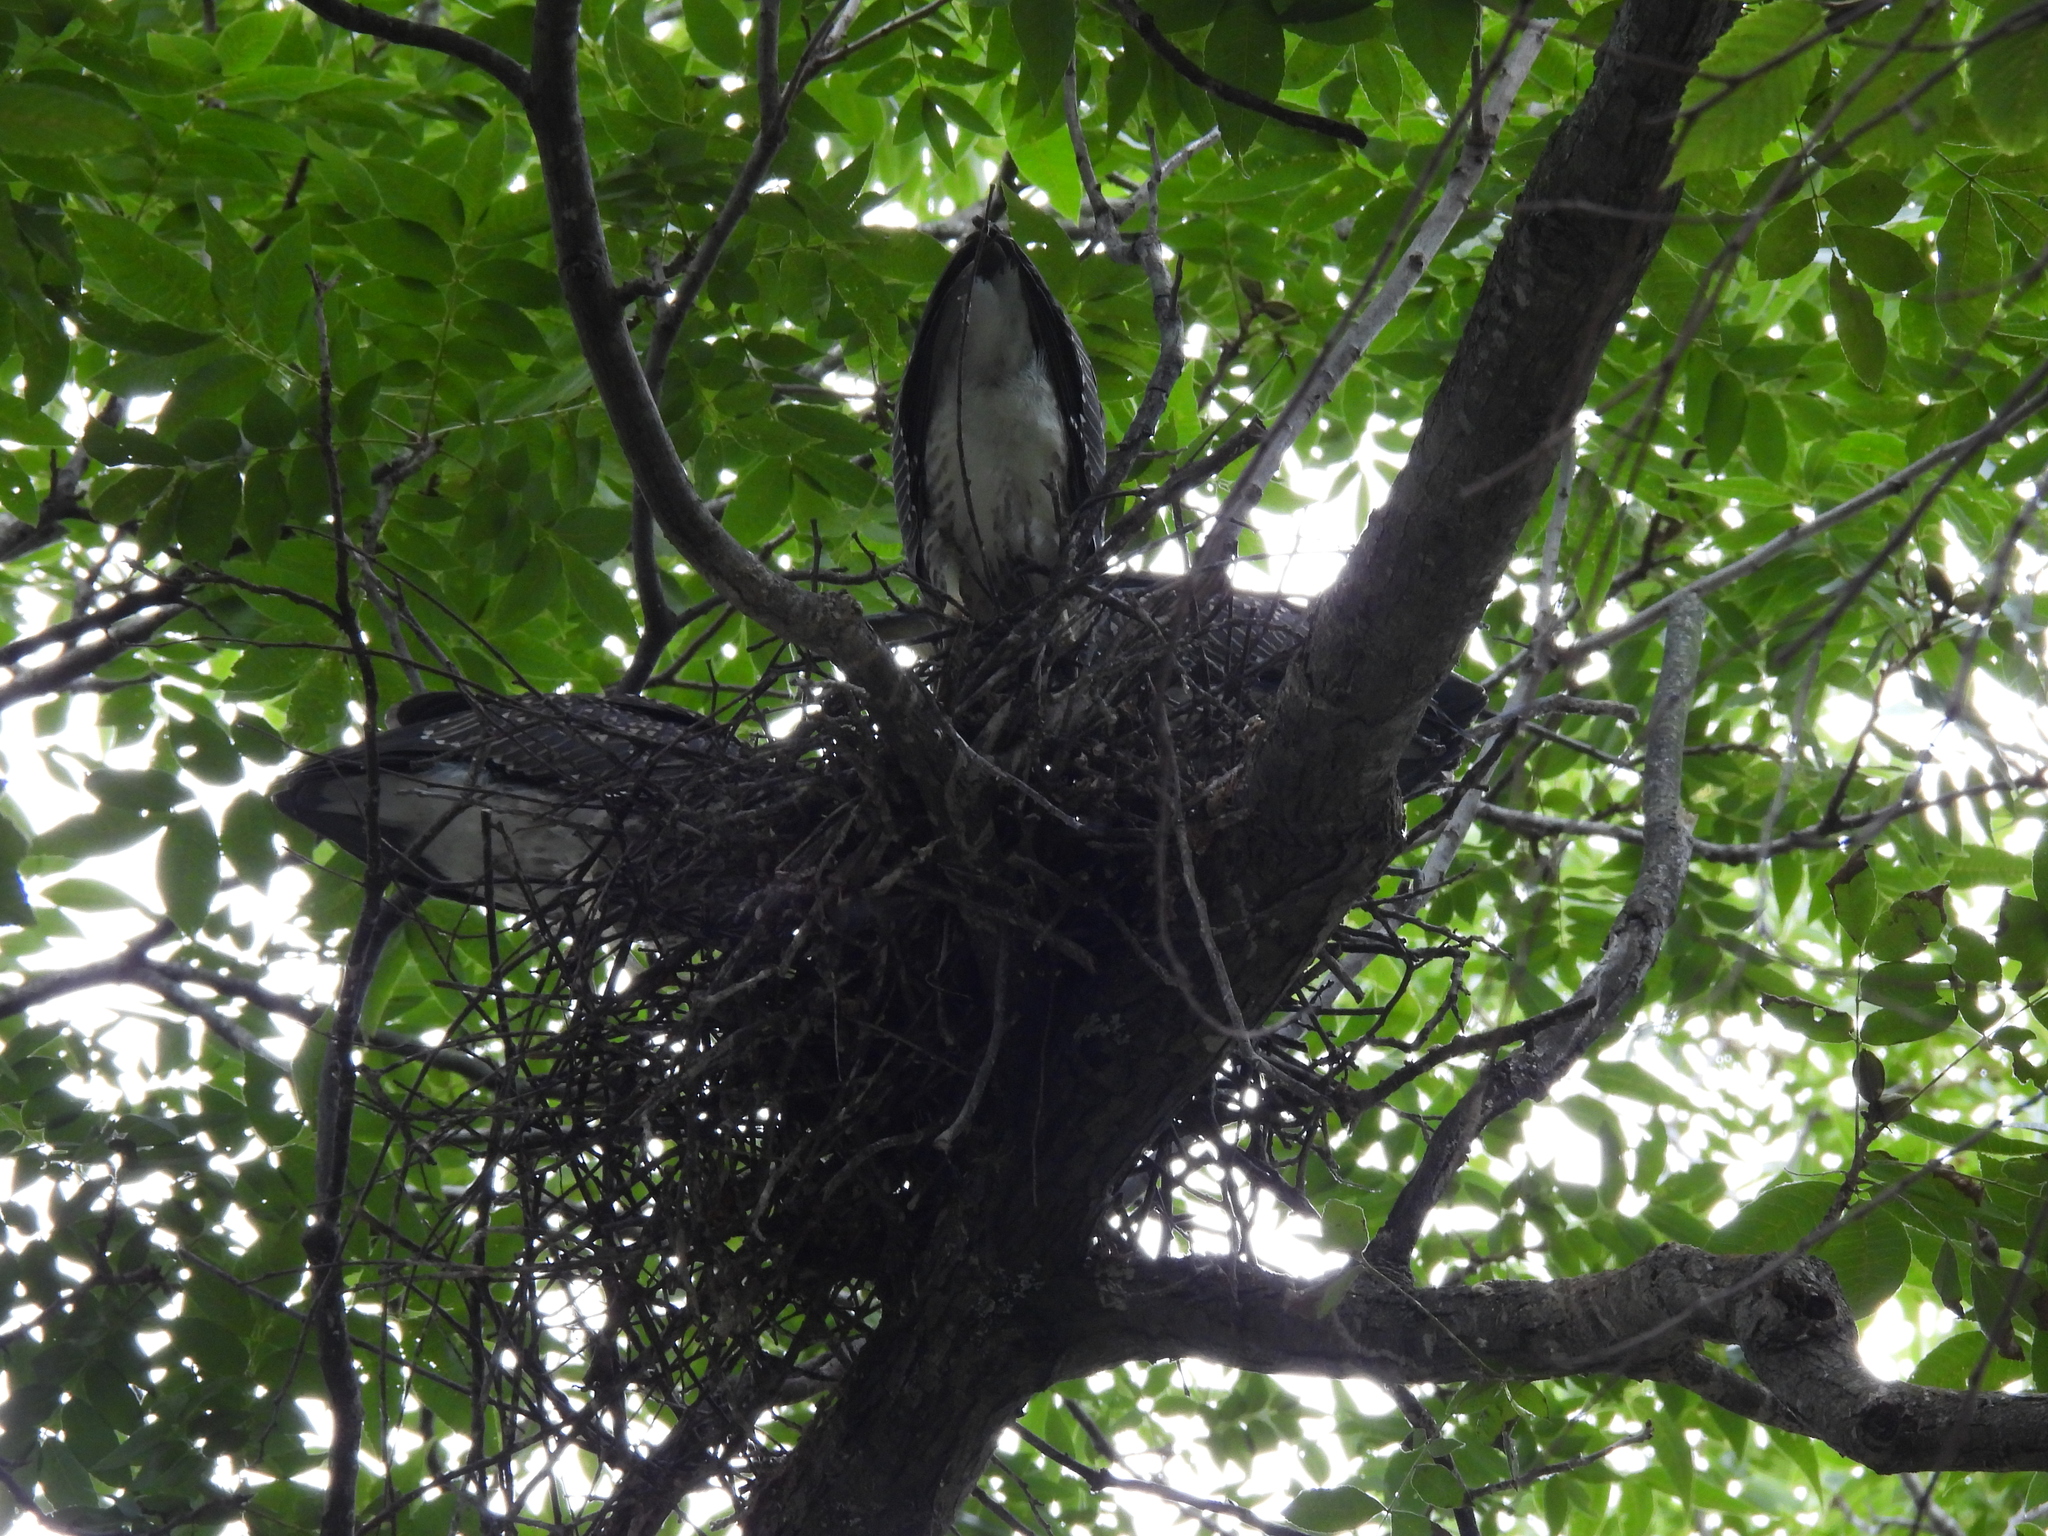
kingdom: Animalia
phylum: Chordata
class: Aves
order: Pelecaniformes
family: Ardeidae
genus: Nyctanassa
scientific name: Nyctanassa violacea
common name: Yellow-crowned night heron
